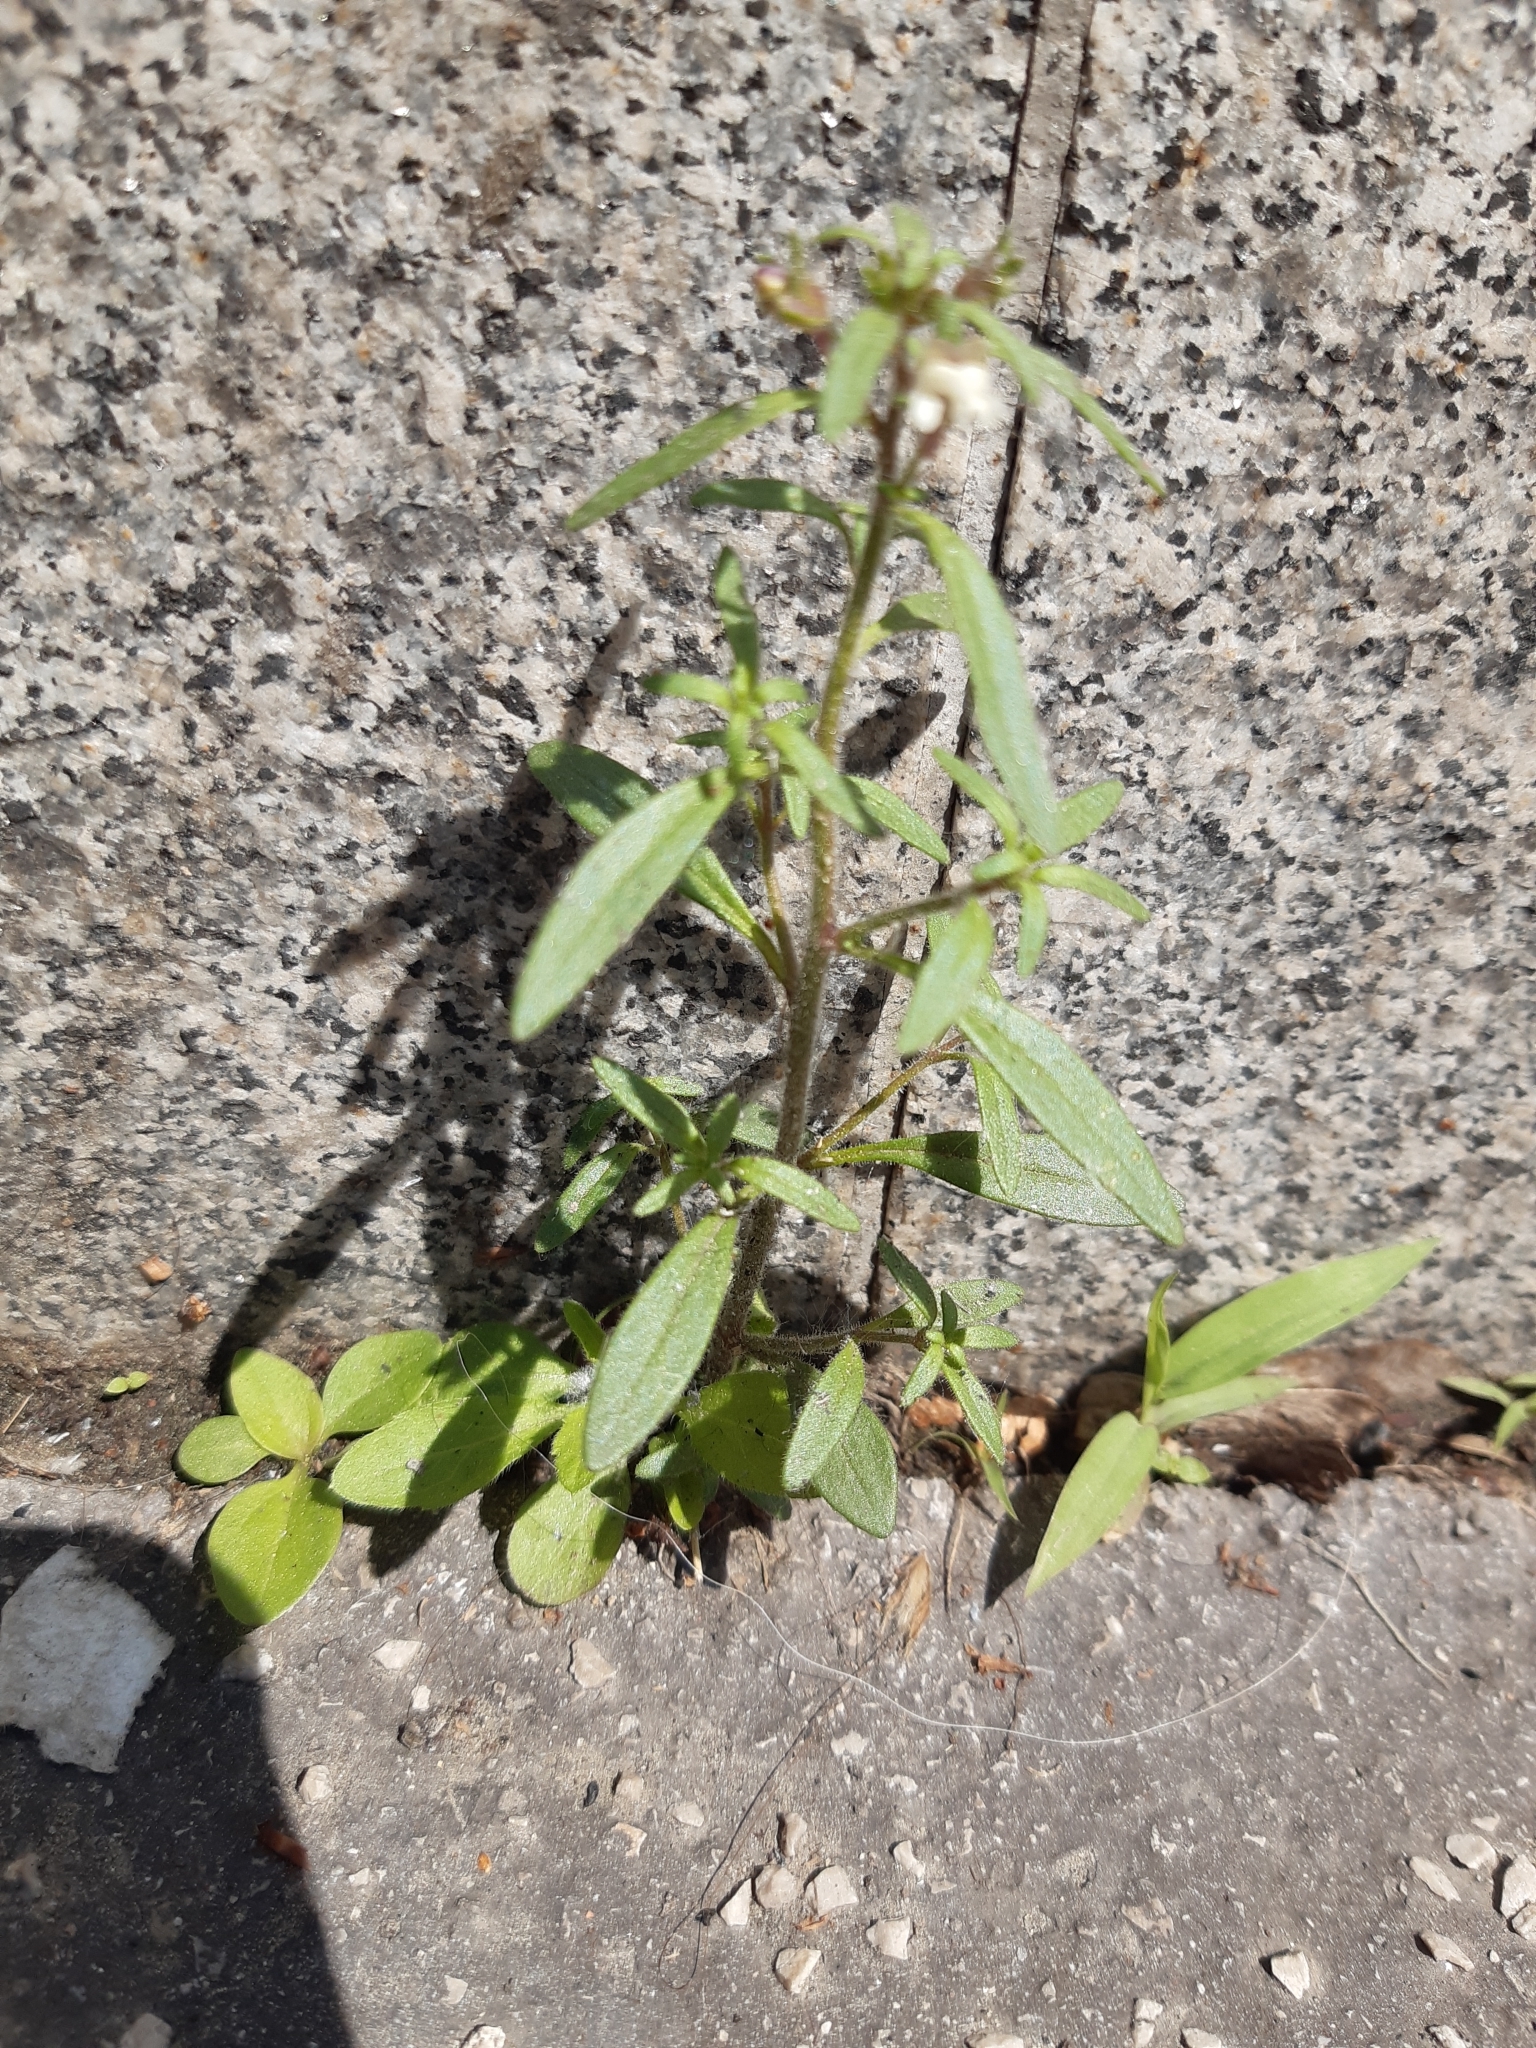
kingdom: Plantae
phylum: Tracheophyta
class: Magnoliopsida
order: Lamiales
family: Plantaginaceae
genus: Chaenorhinum
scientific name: Chaenorhinum minus
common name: Dwarf snapdragon
